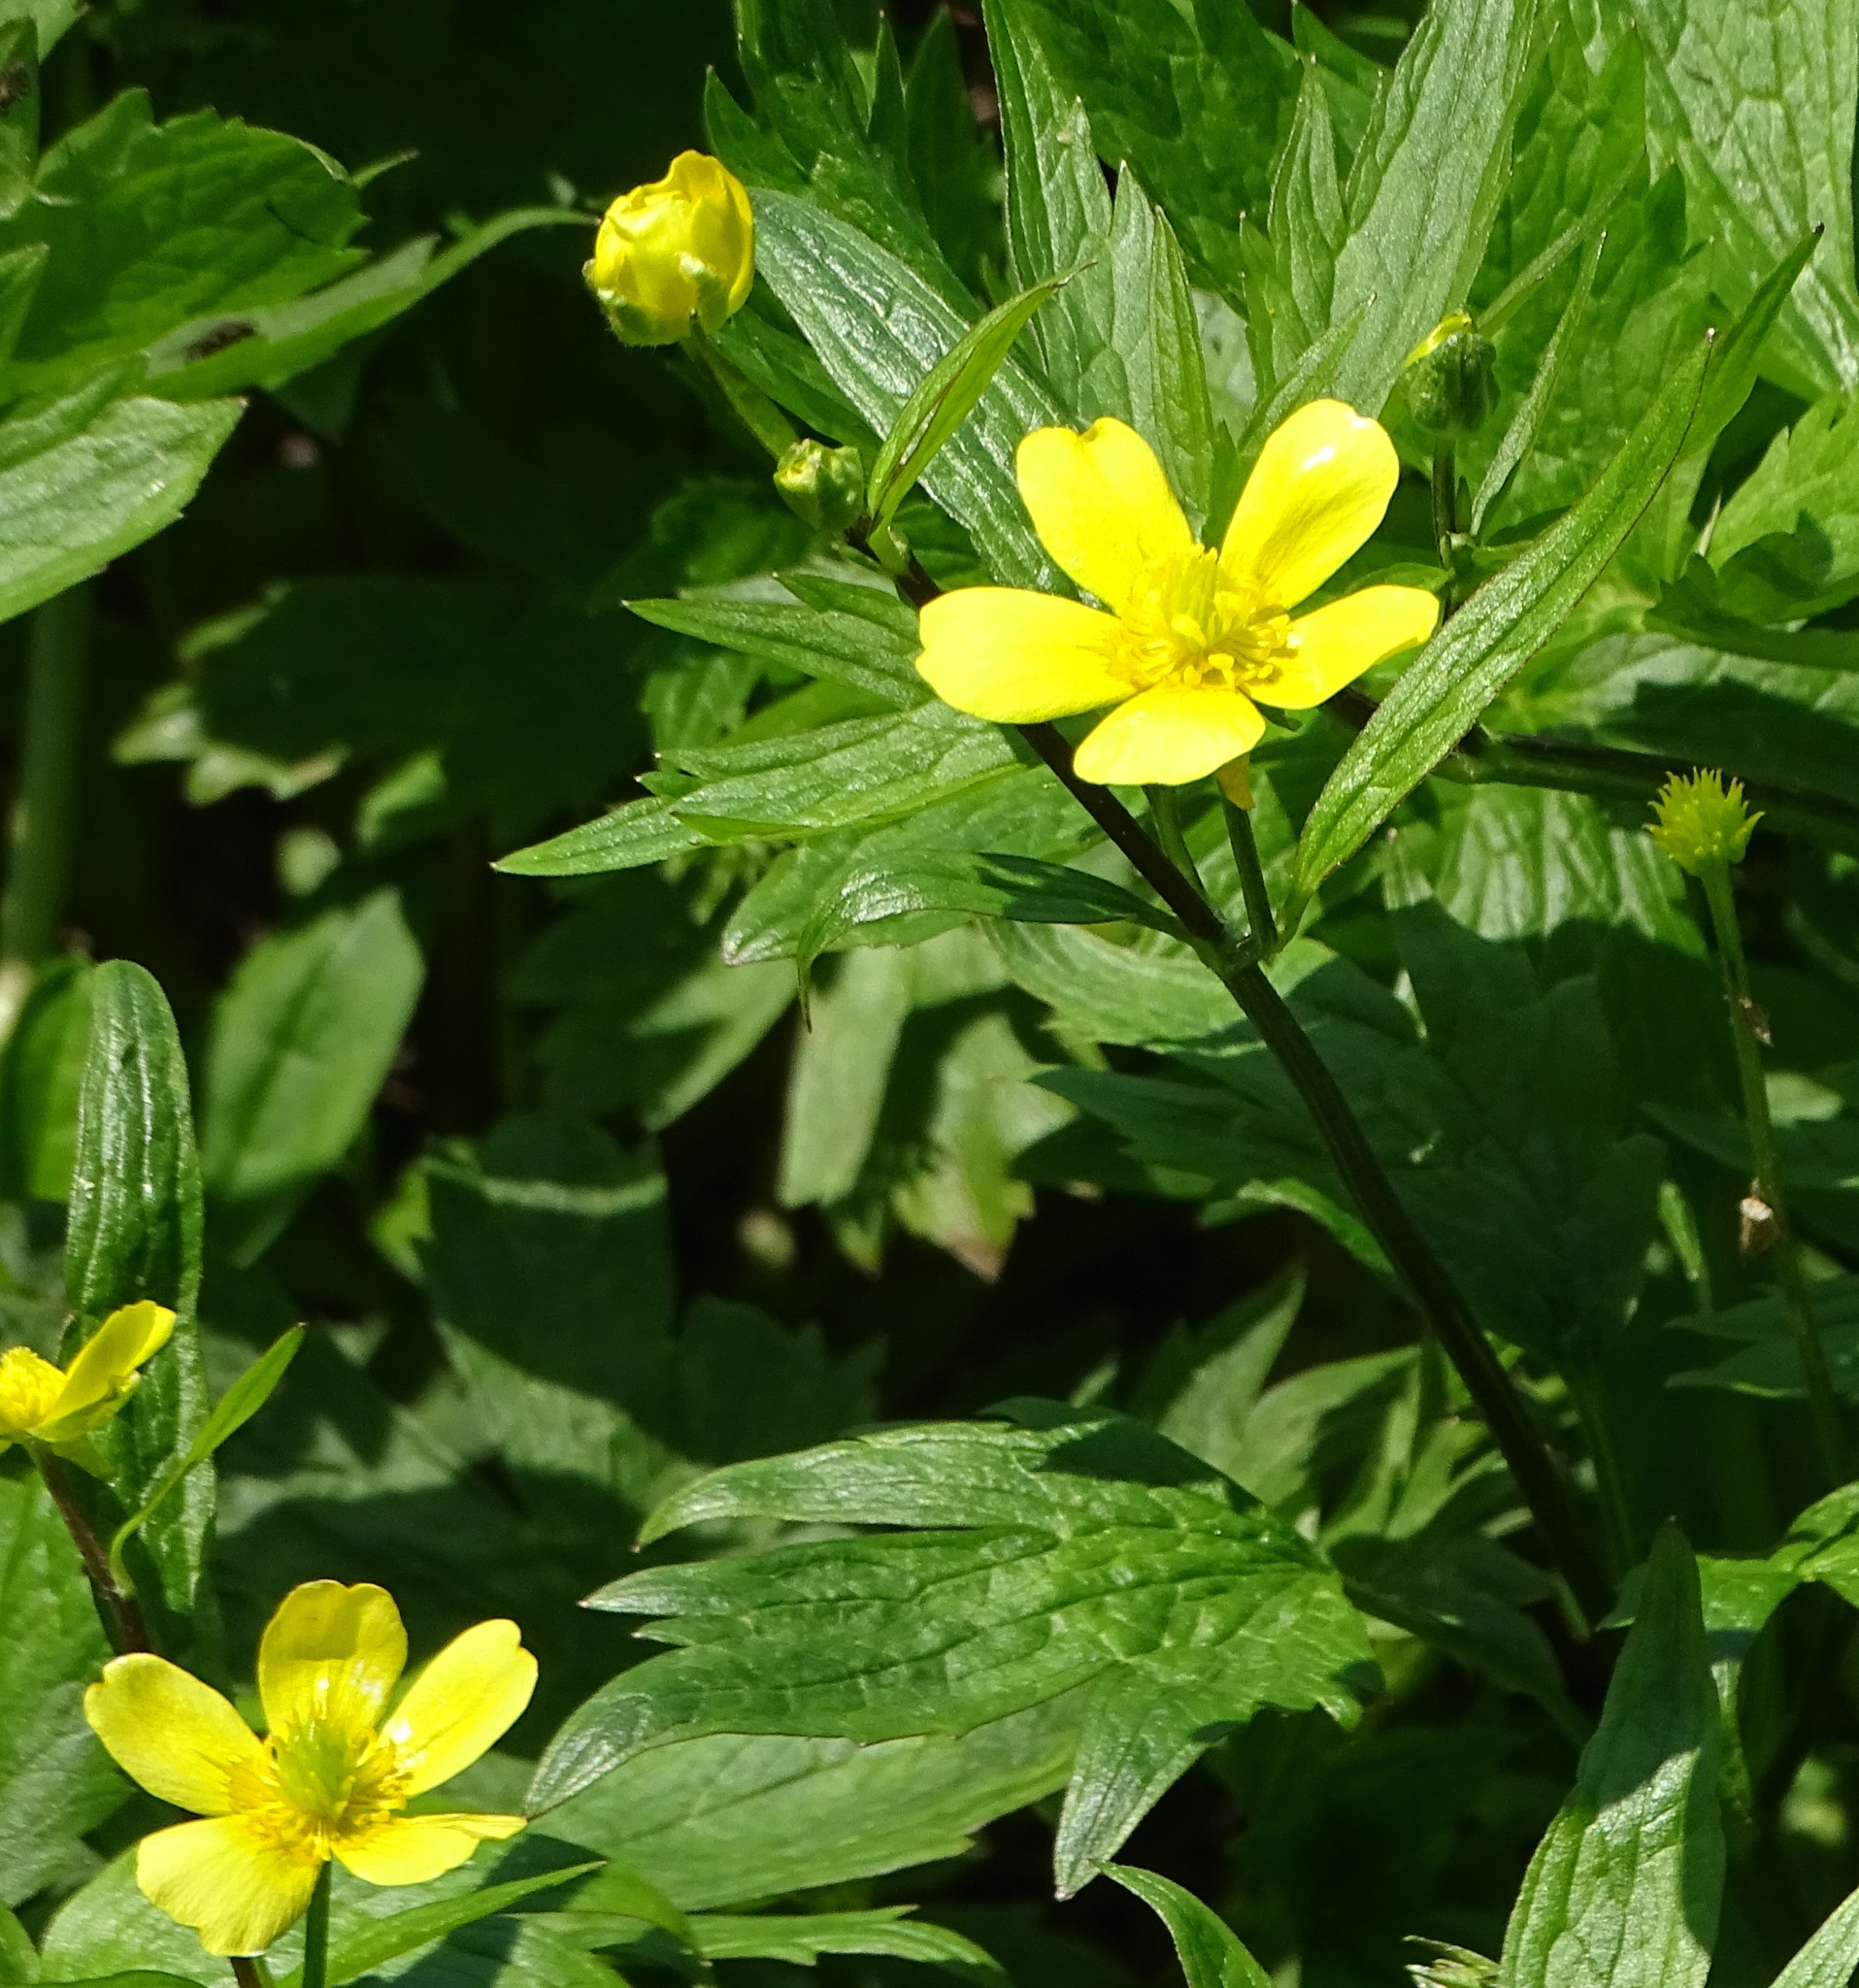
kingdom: Plantae
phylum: Tracheophyta
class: Magnoliopsida
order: Ranunculales
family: Ranunculaceae
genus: Ranunculus
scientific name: Ranunculus hispidus
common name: Bristly buttercup
